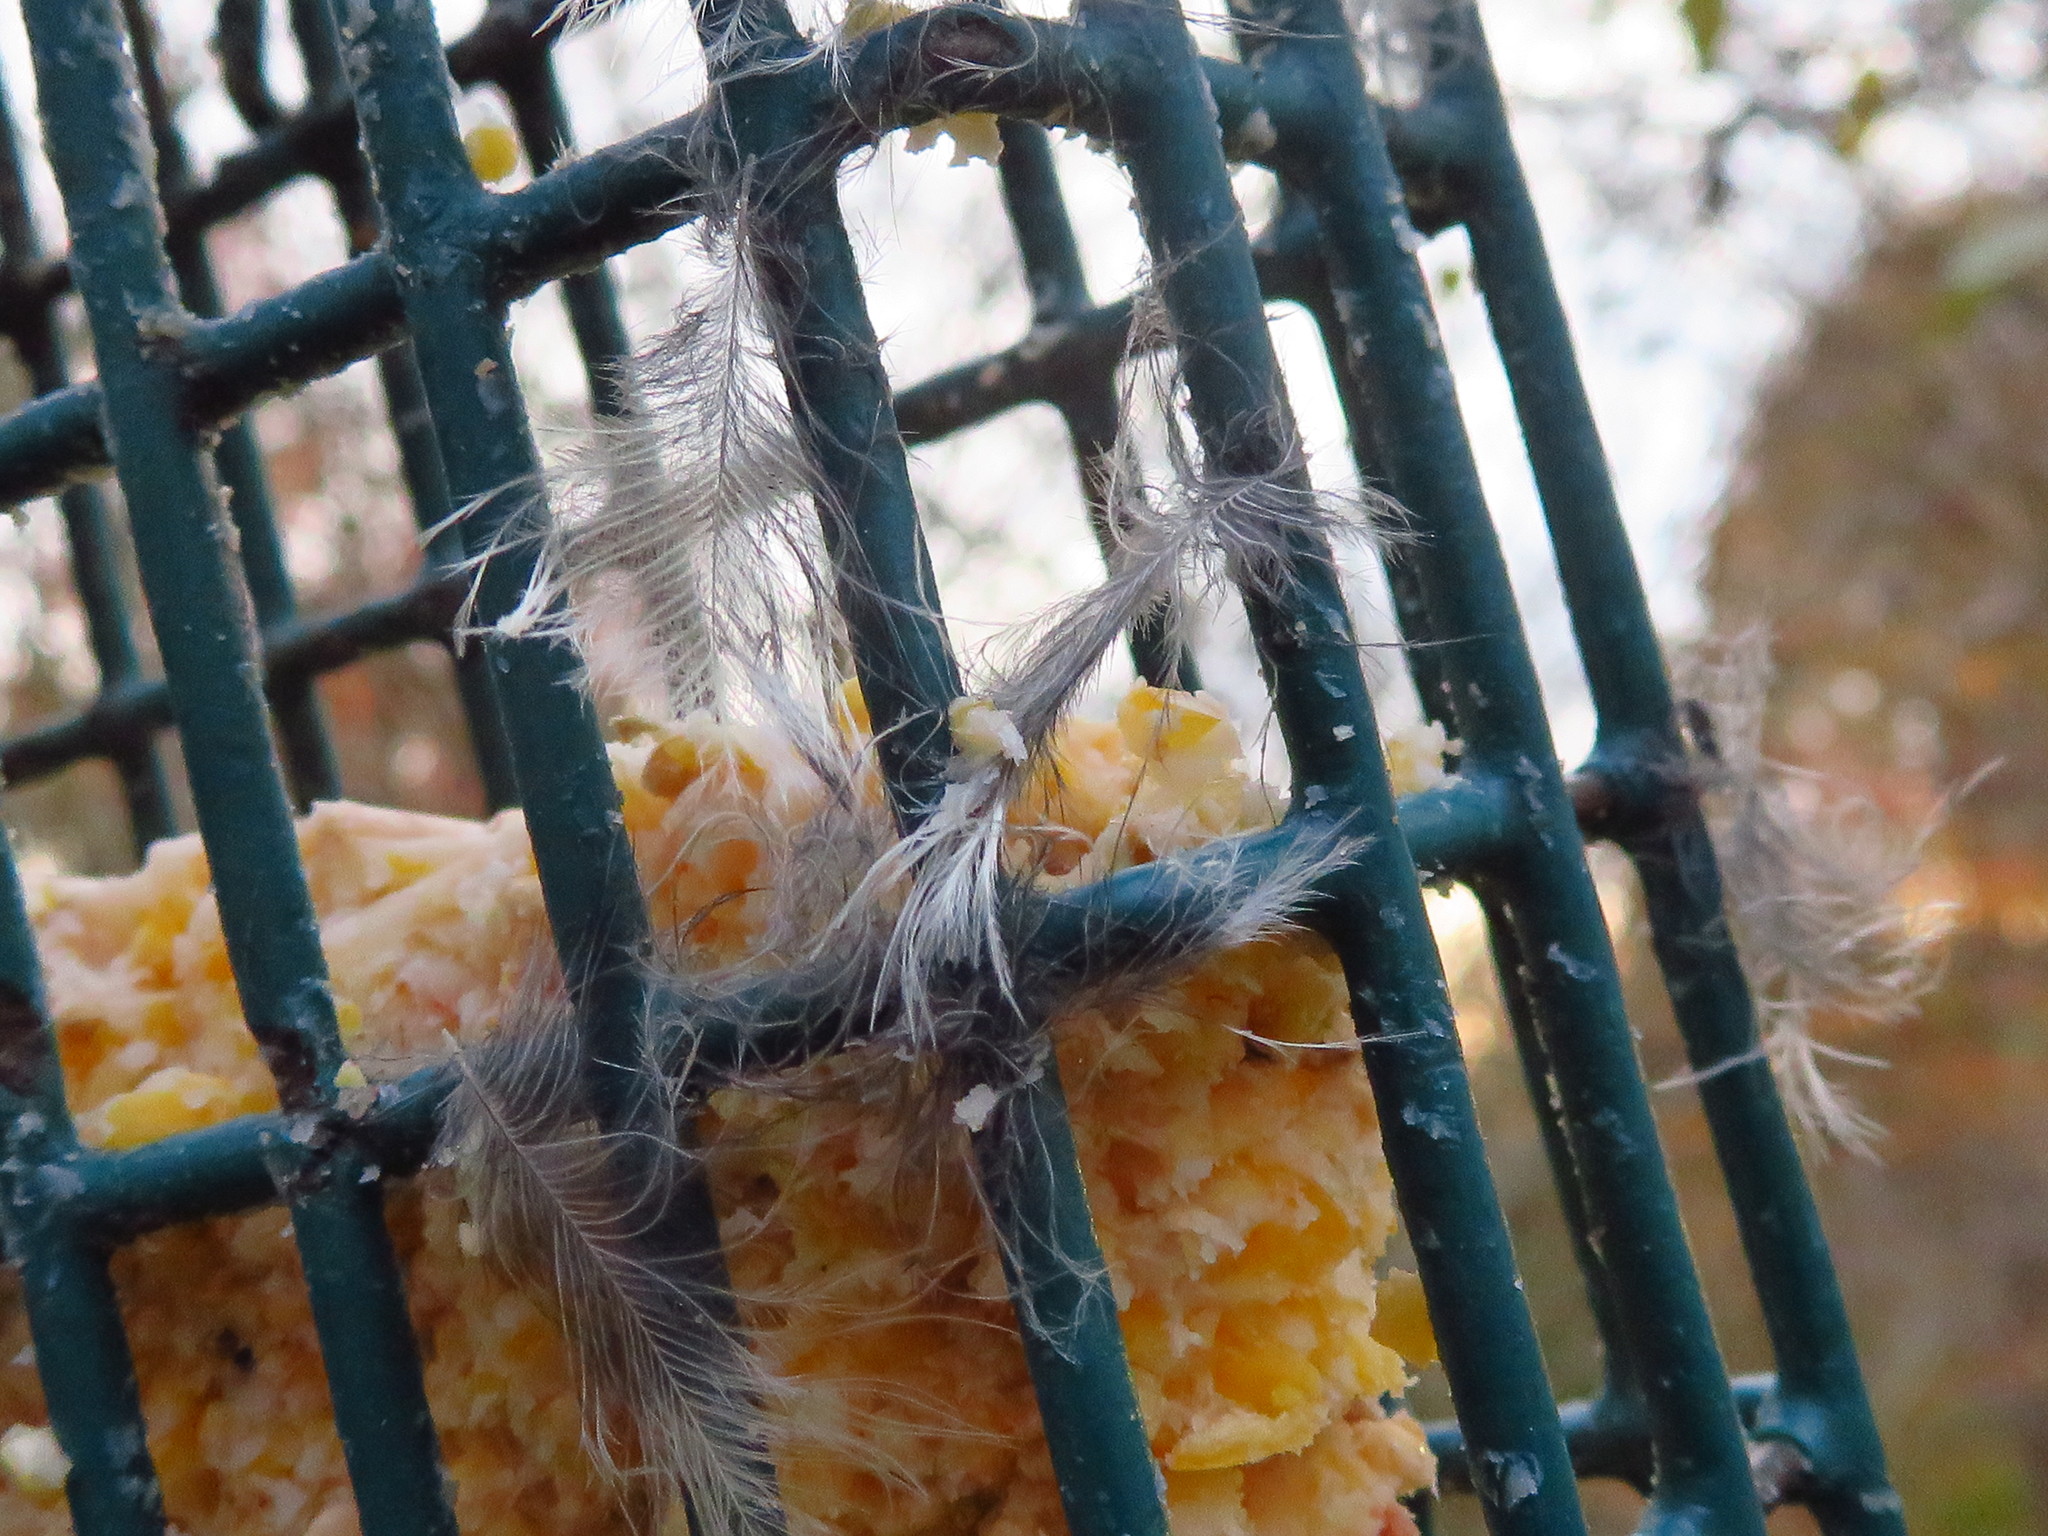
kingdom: Animalia
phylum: Chordata
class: Aves
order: Piciformes
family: Picidae
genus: Dryobates
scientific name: Dryobates pubescens
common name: Downy woodpecker
